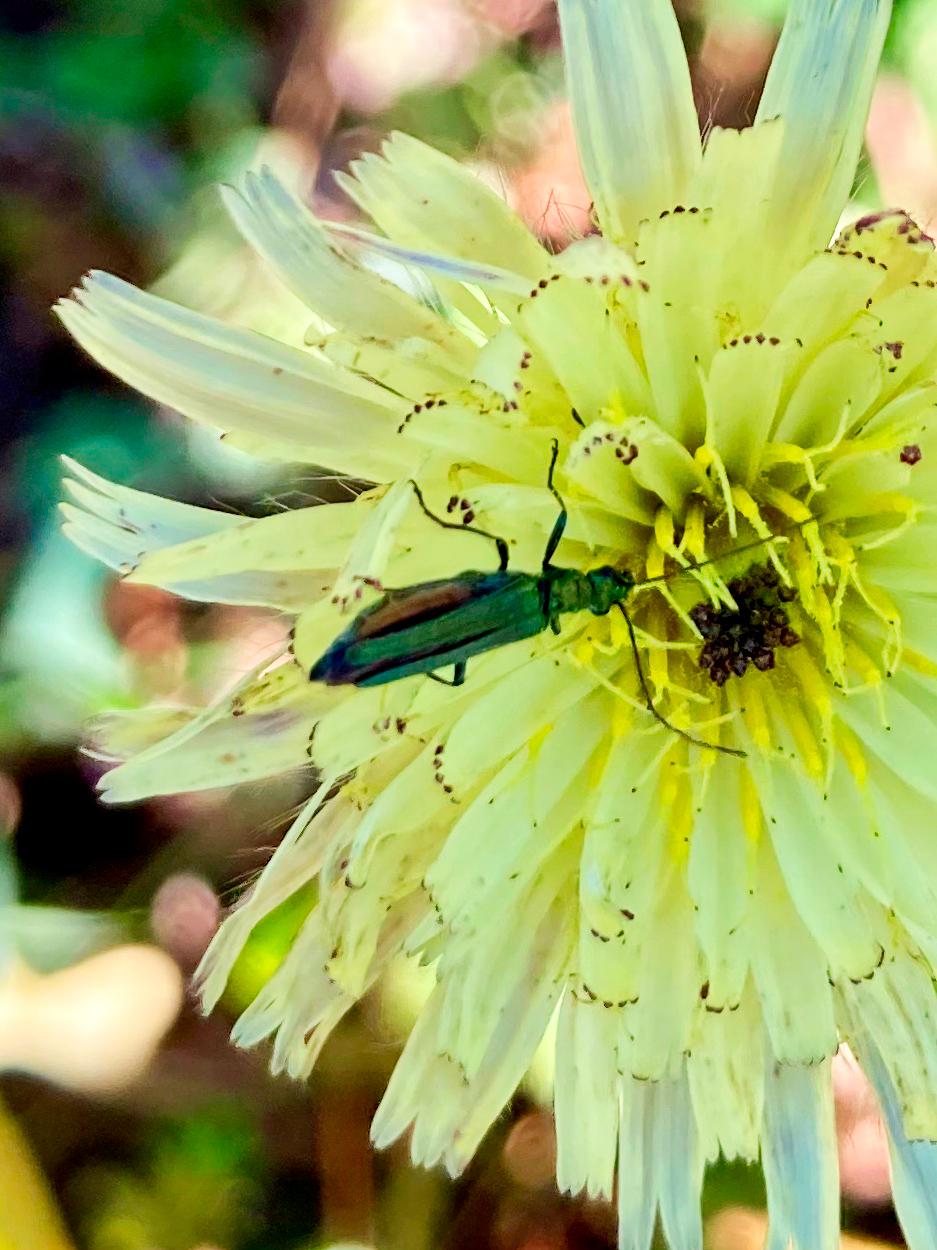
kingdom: Animalia
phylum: Arthropoda
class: Insecta
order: Coleoptera
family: Oedemeridae
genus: Oedemera
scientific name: Oedemera nobilis
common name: Swollen-thighed beetle
